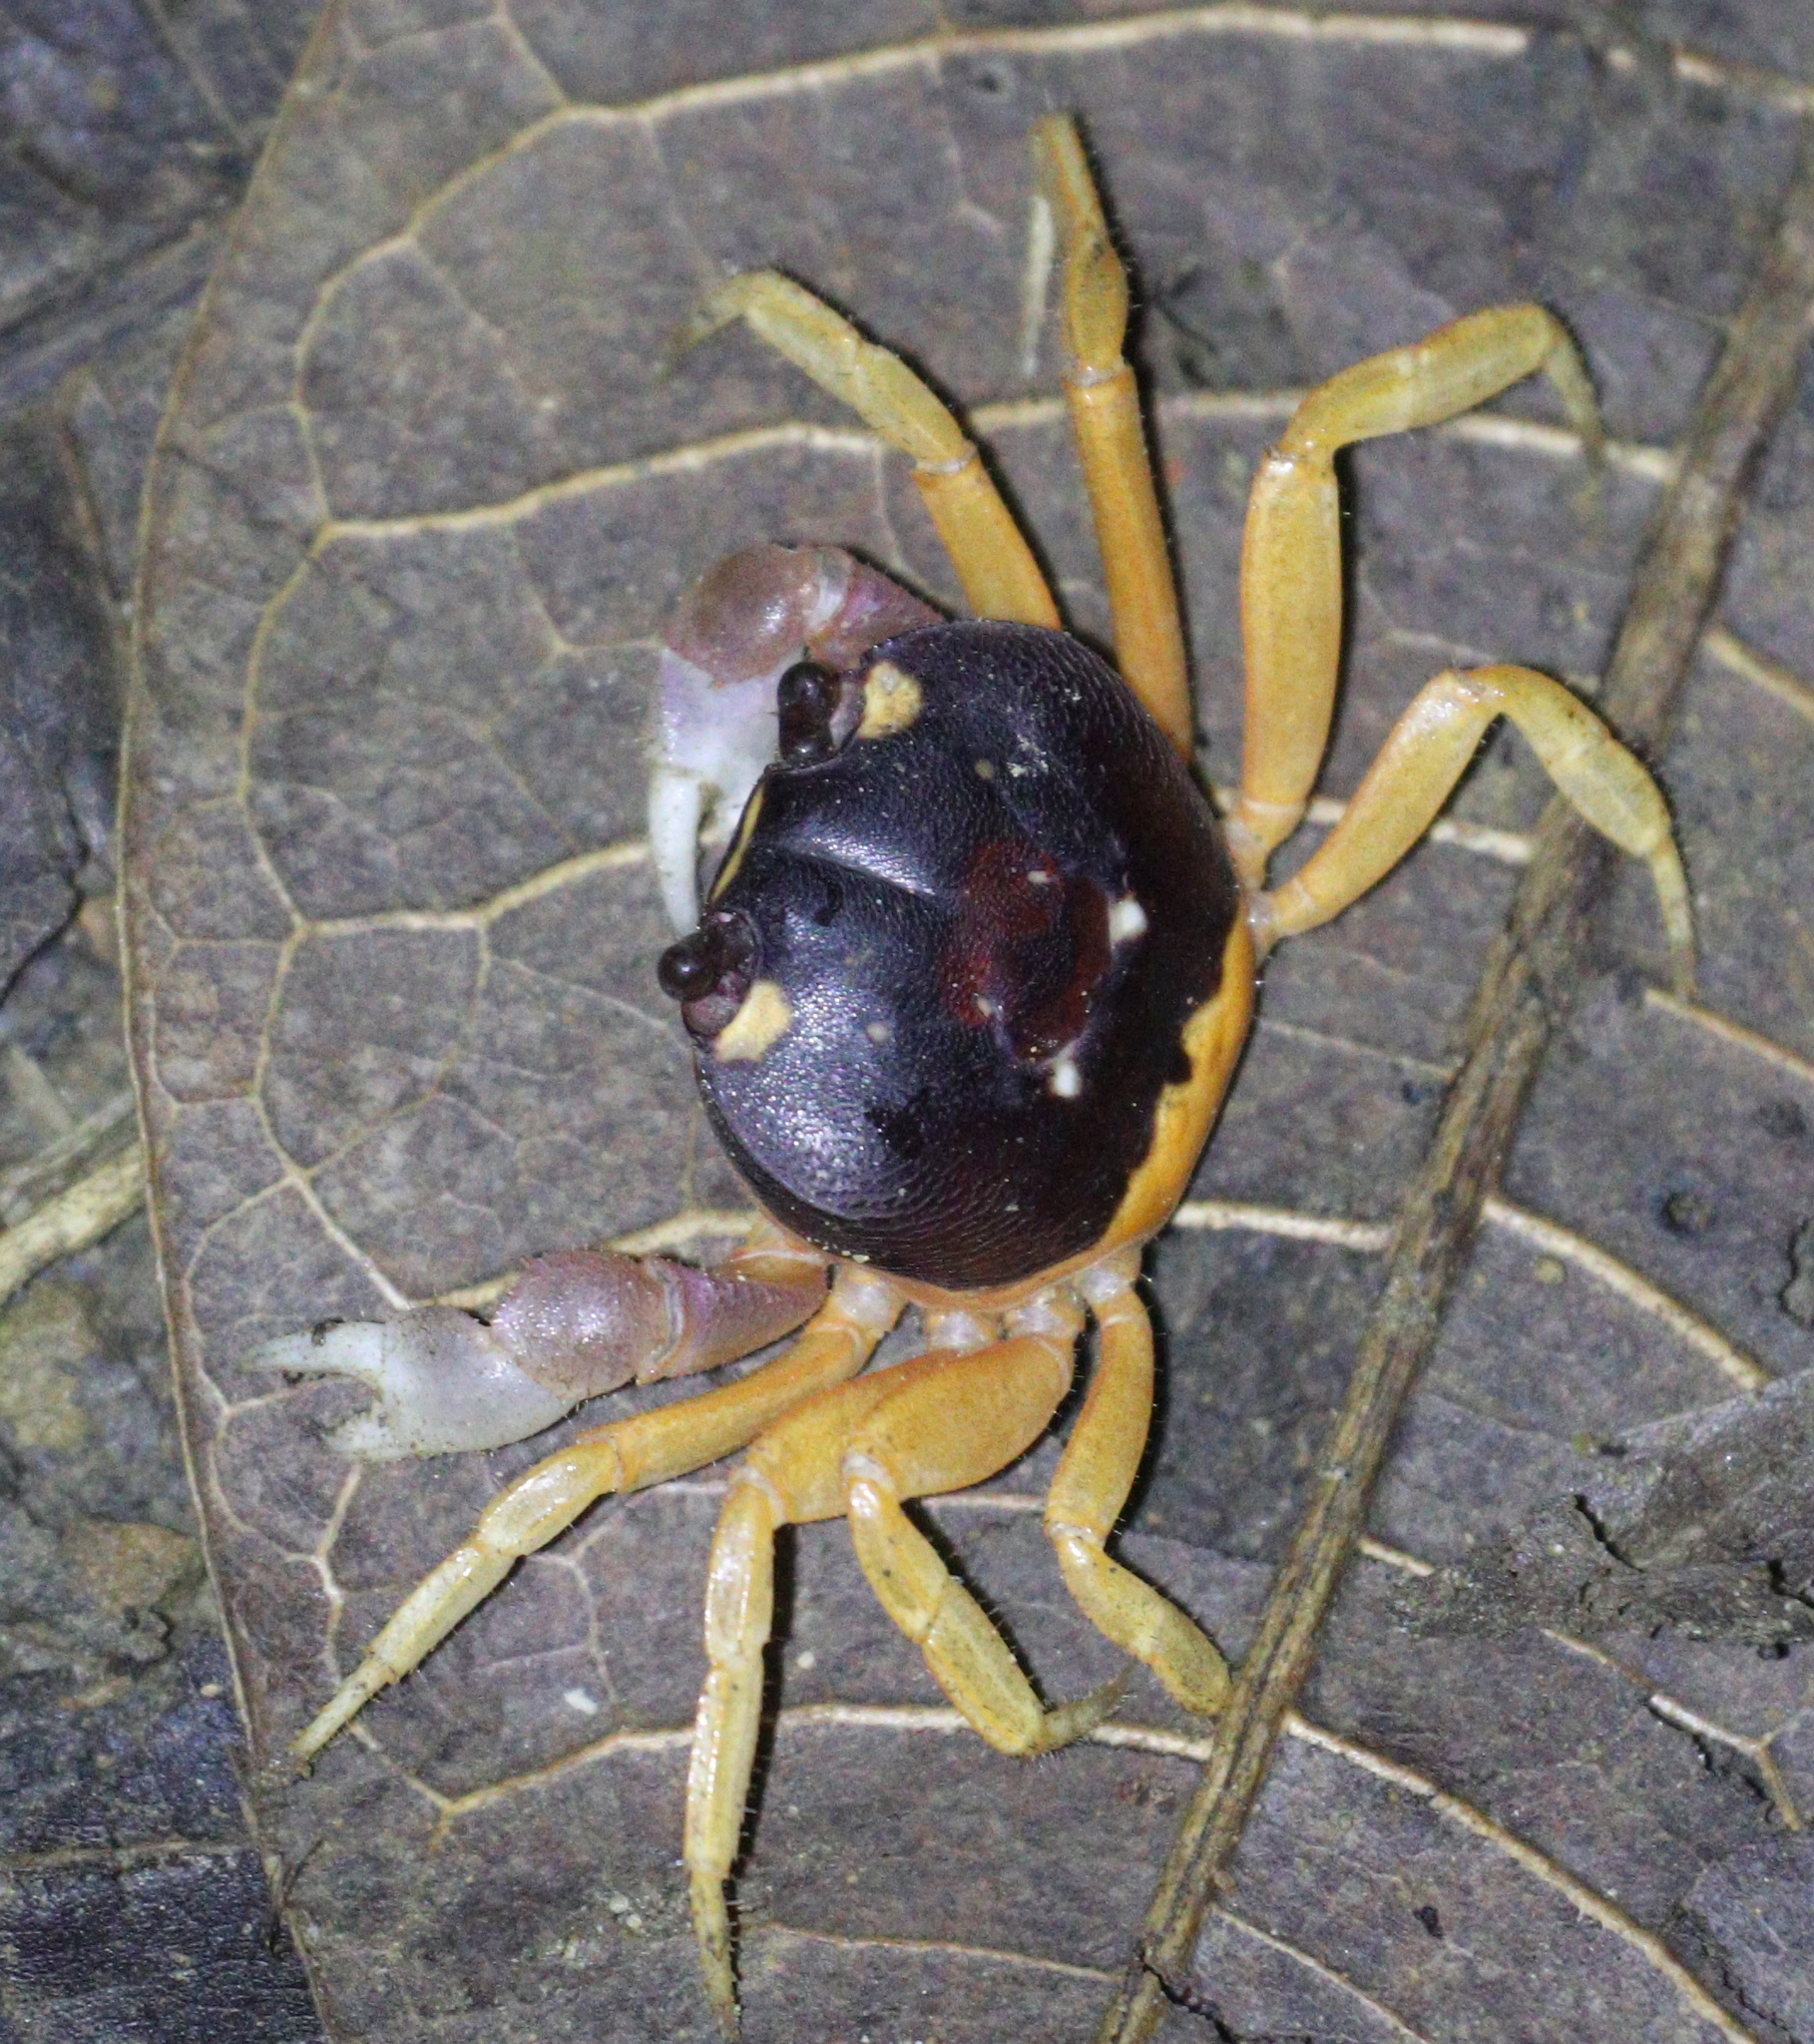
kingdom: Animalia
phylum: Arthropoda
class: Malacostraca
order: Decapoda
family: Gecarcinidae
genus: Gecarcinus
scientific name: Gecarcinus quadratus
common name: Halloween crab
